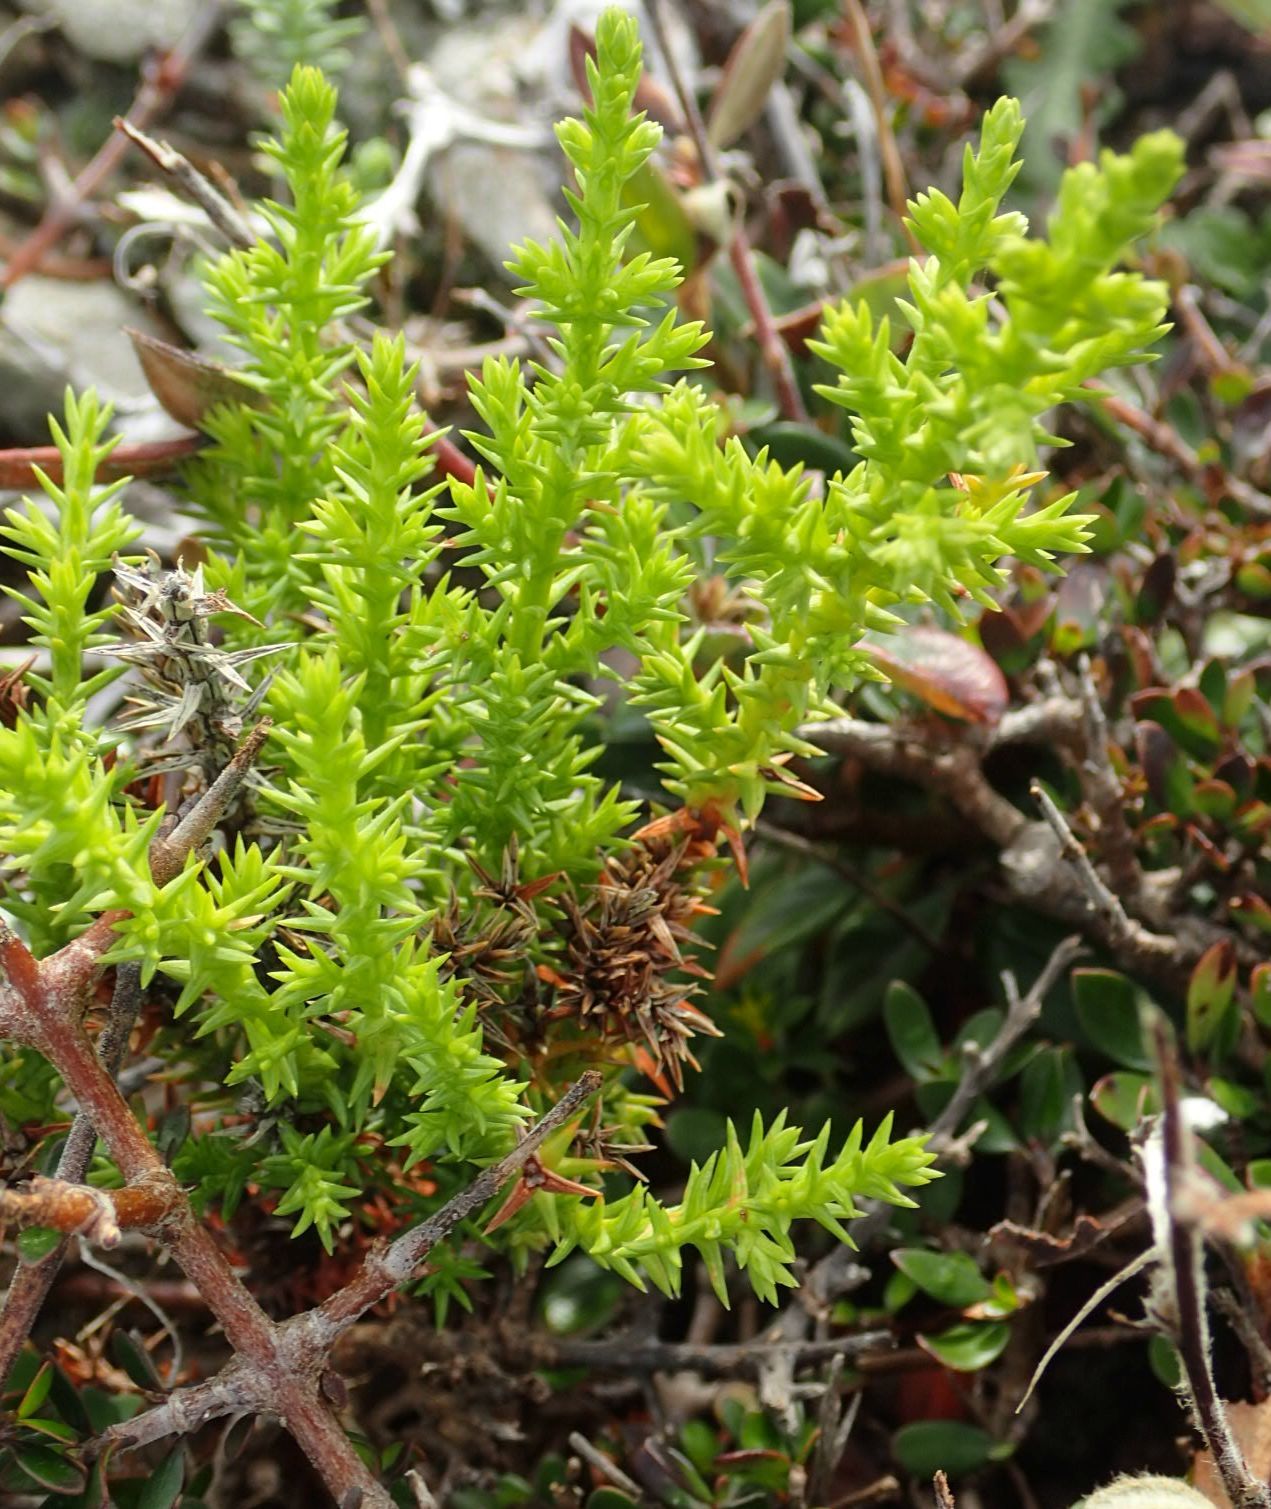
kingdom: Plantae
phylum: Tracheophyta
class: Pinopsida
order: Pinales
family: Cupressaceae
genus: Cupressus
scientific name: Cupressus macrocarpa
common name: Monterey cypress
